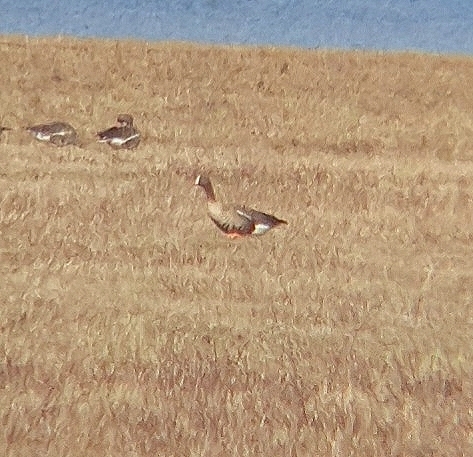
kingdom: Animalia
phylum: Chordata
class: Aves
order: Anseriformes
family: Anatidae
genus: Anser
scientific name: Anser albifrons
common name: Greater white-fronted goose
